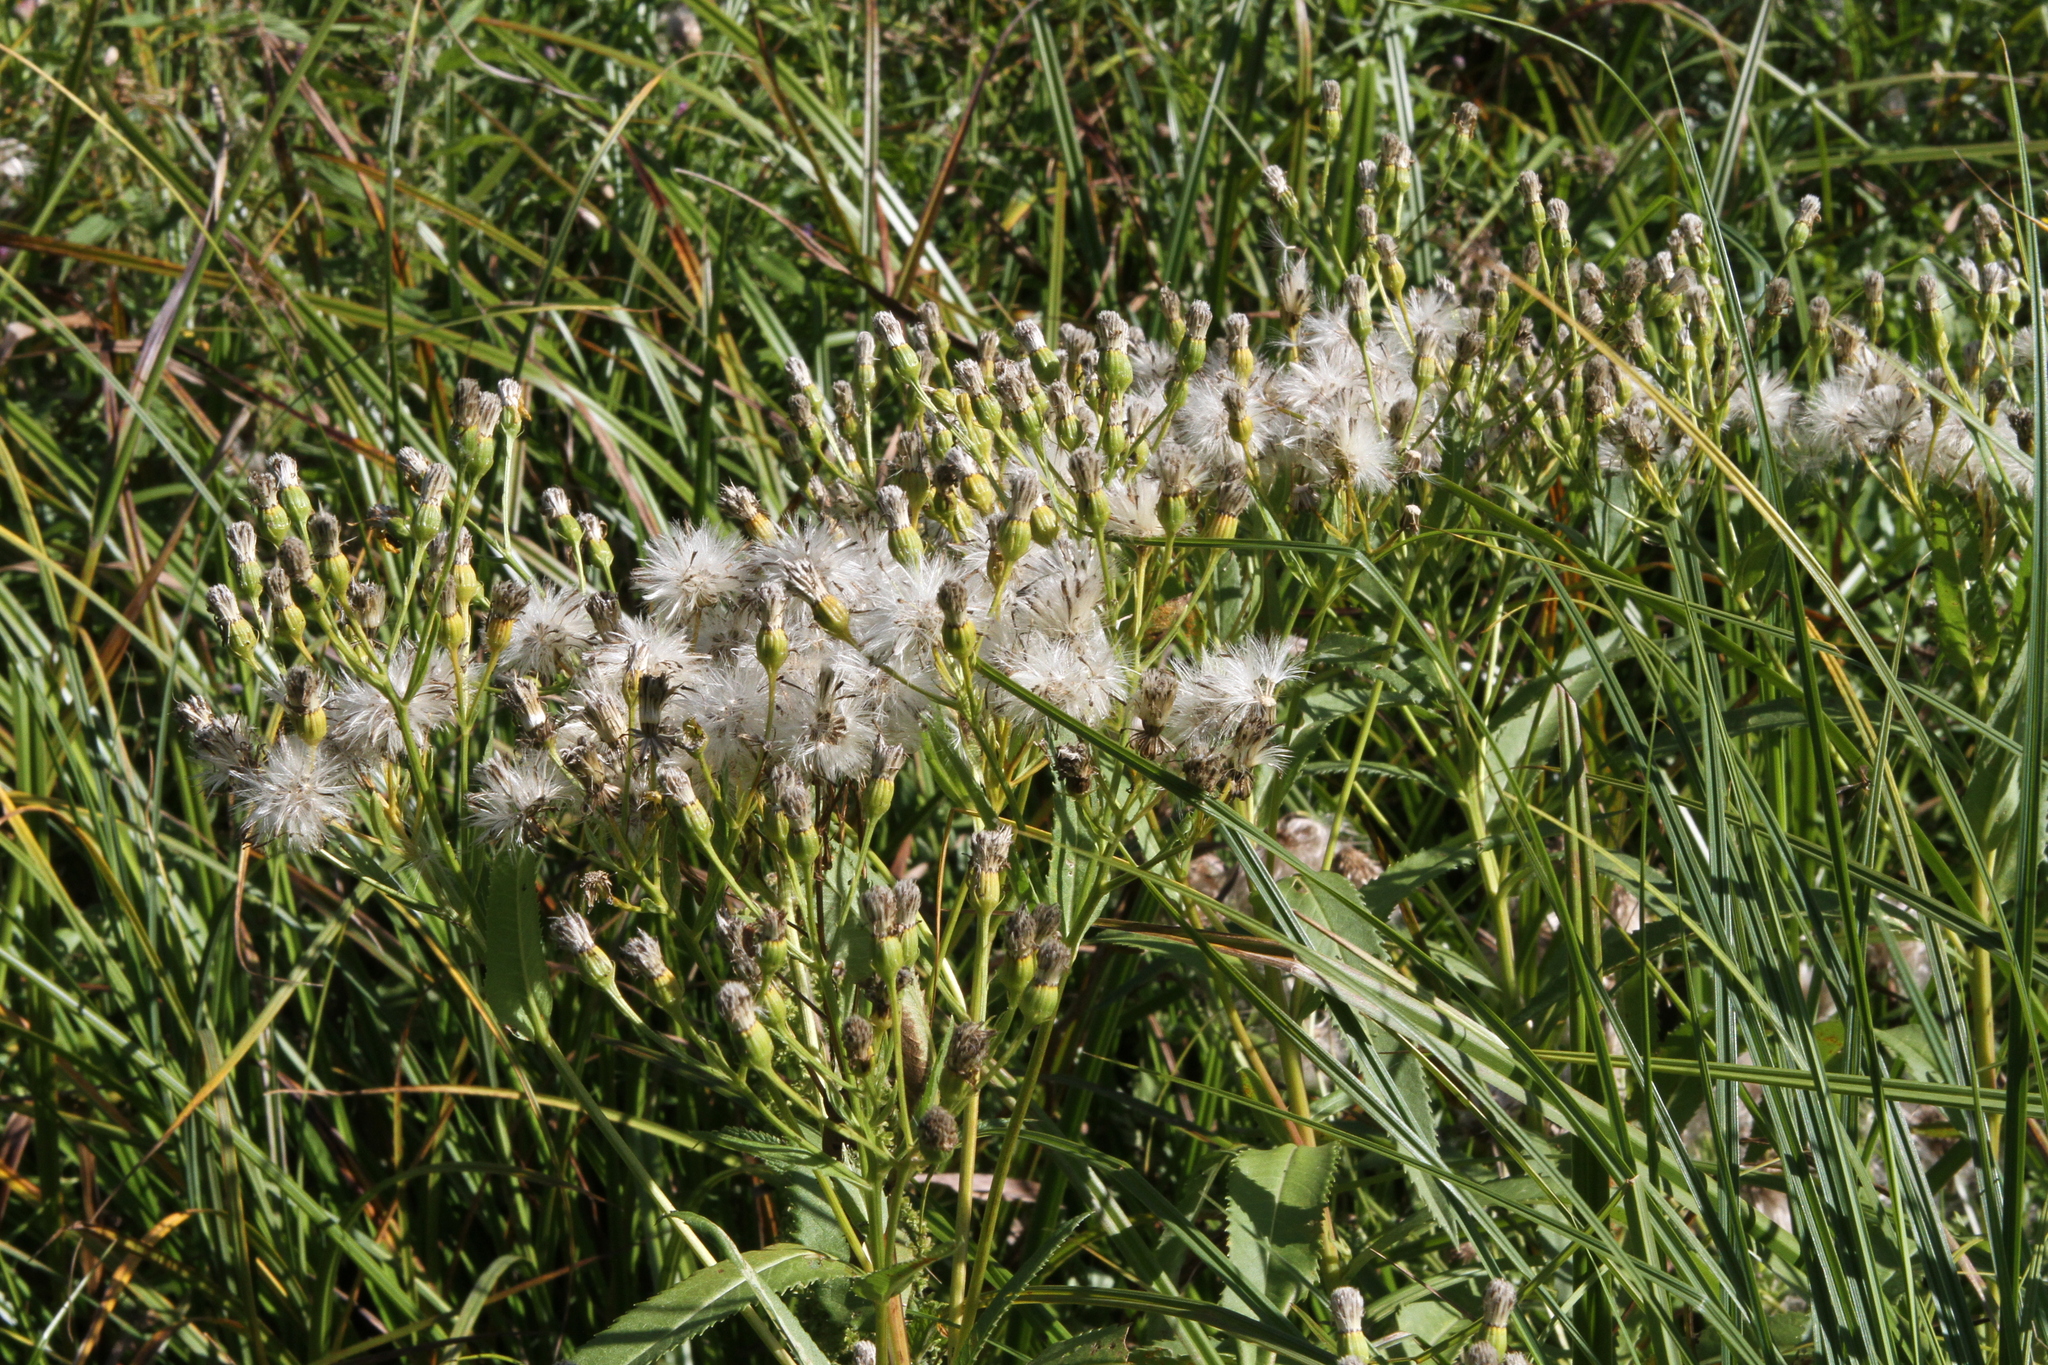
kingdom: Plantae
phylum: Tracheophyta
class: Magnoliopsida
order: Asterales
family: Asteraceae
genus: Senecio
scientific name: Senecio sarracenicus
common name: Broad-leaved ragwort
